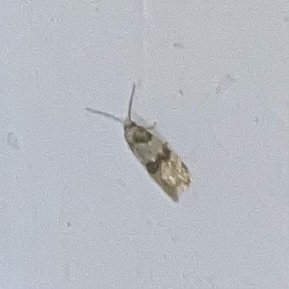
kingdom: Animalia
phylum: Arthropoda
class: Insecta
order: Lepidoptera
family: Tortricidae
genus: Aethes
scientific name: Aethes argentilimitana
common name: Silver-bordered aethes
